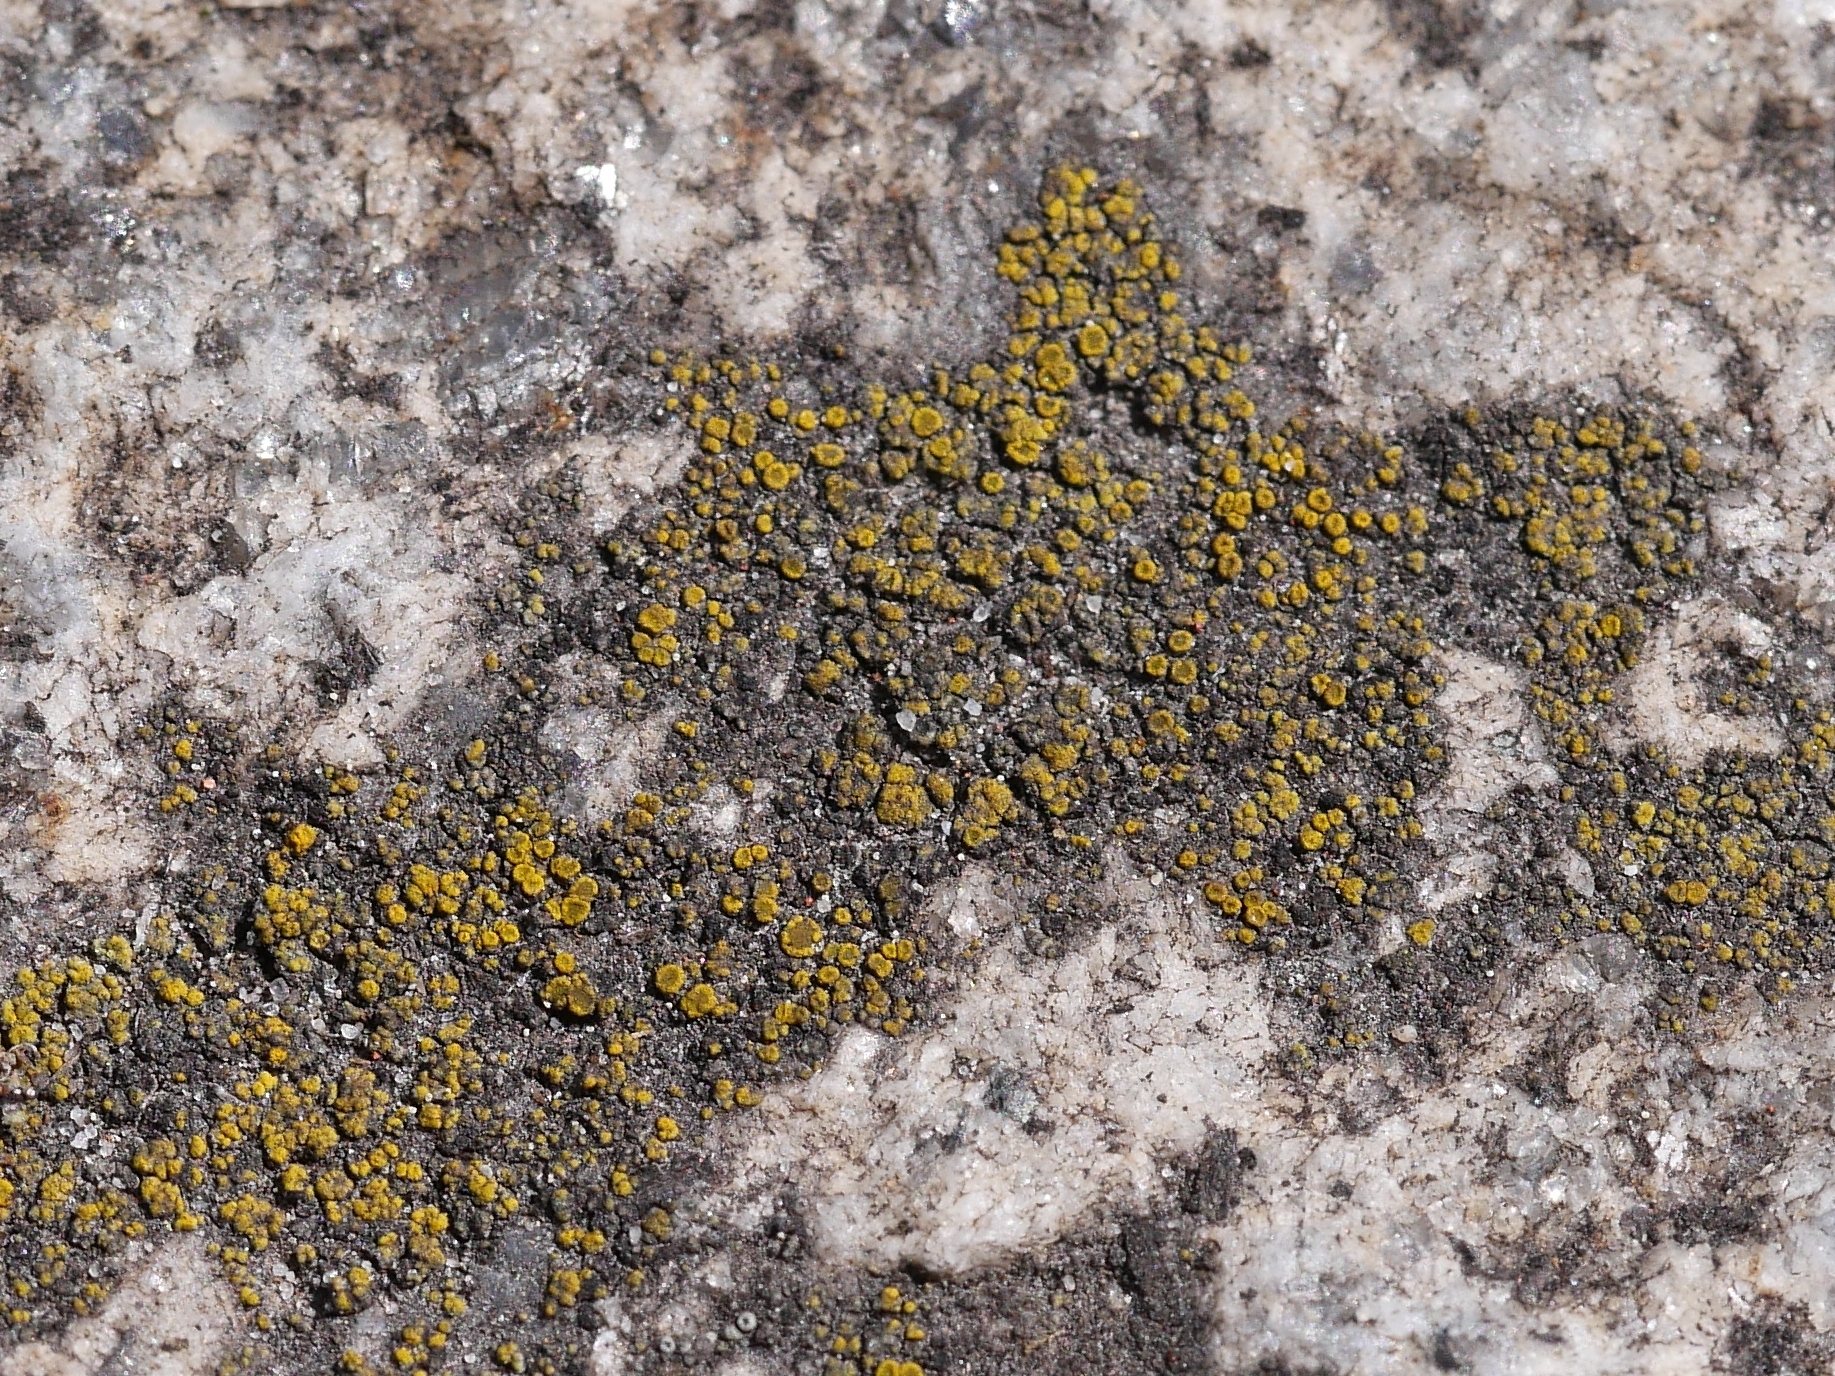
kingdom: Fungi
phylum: Ascomycota
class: Candelariomycetes
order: Candelariales
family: Candelariaceae
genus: Candelariella
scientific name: Candelariella vitellina
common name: Common goldspeck
